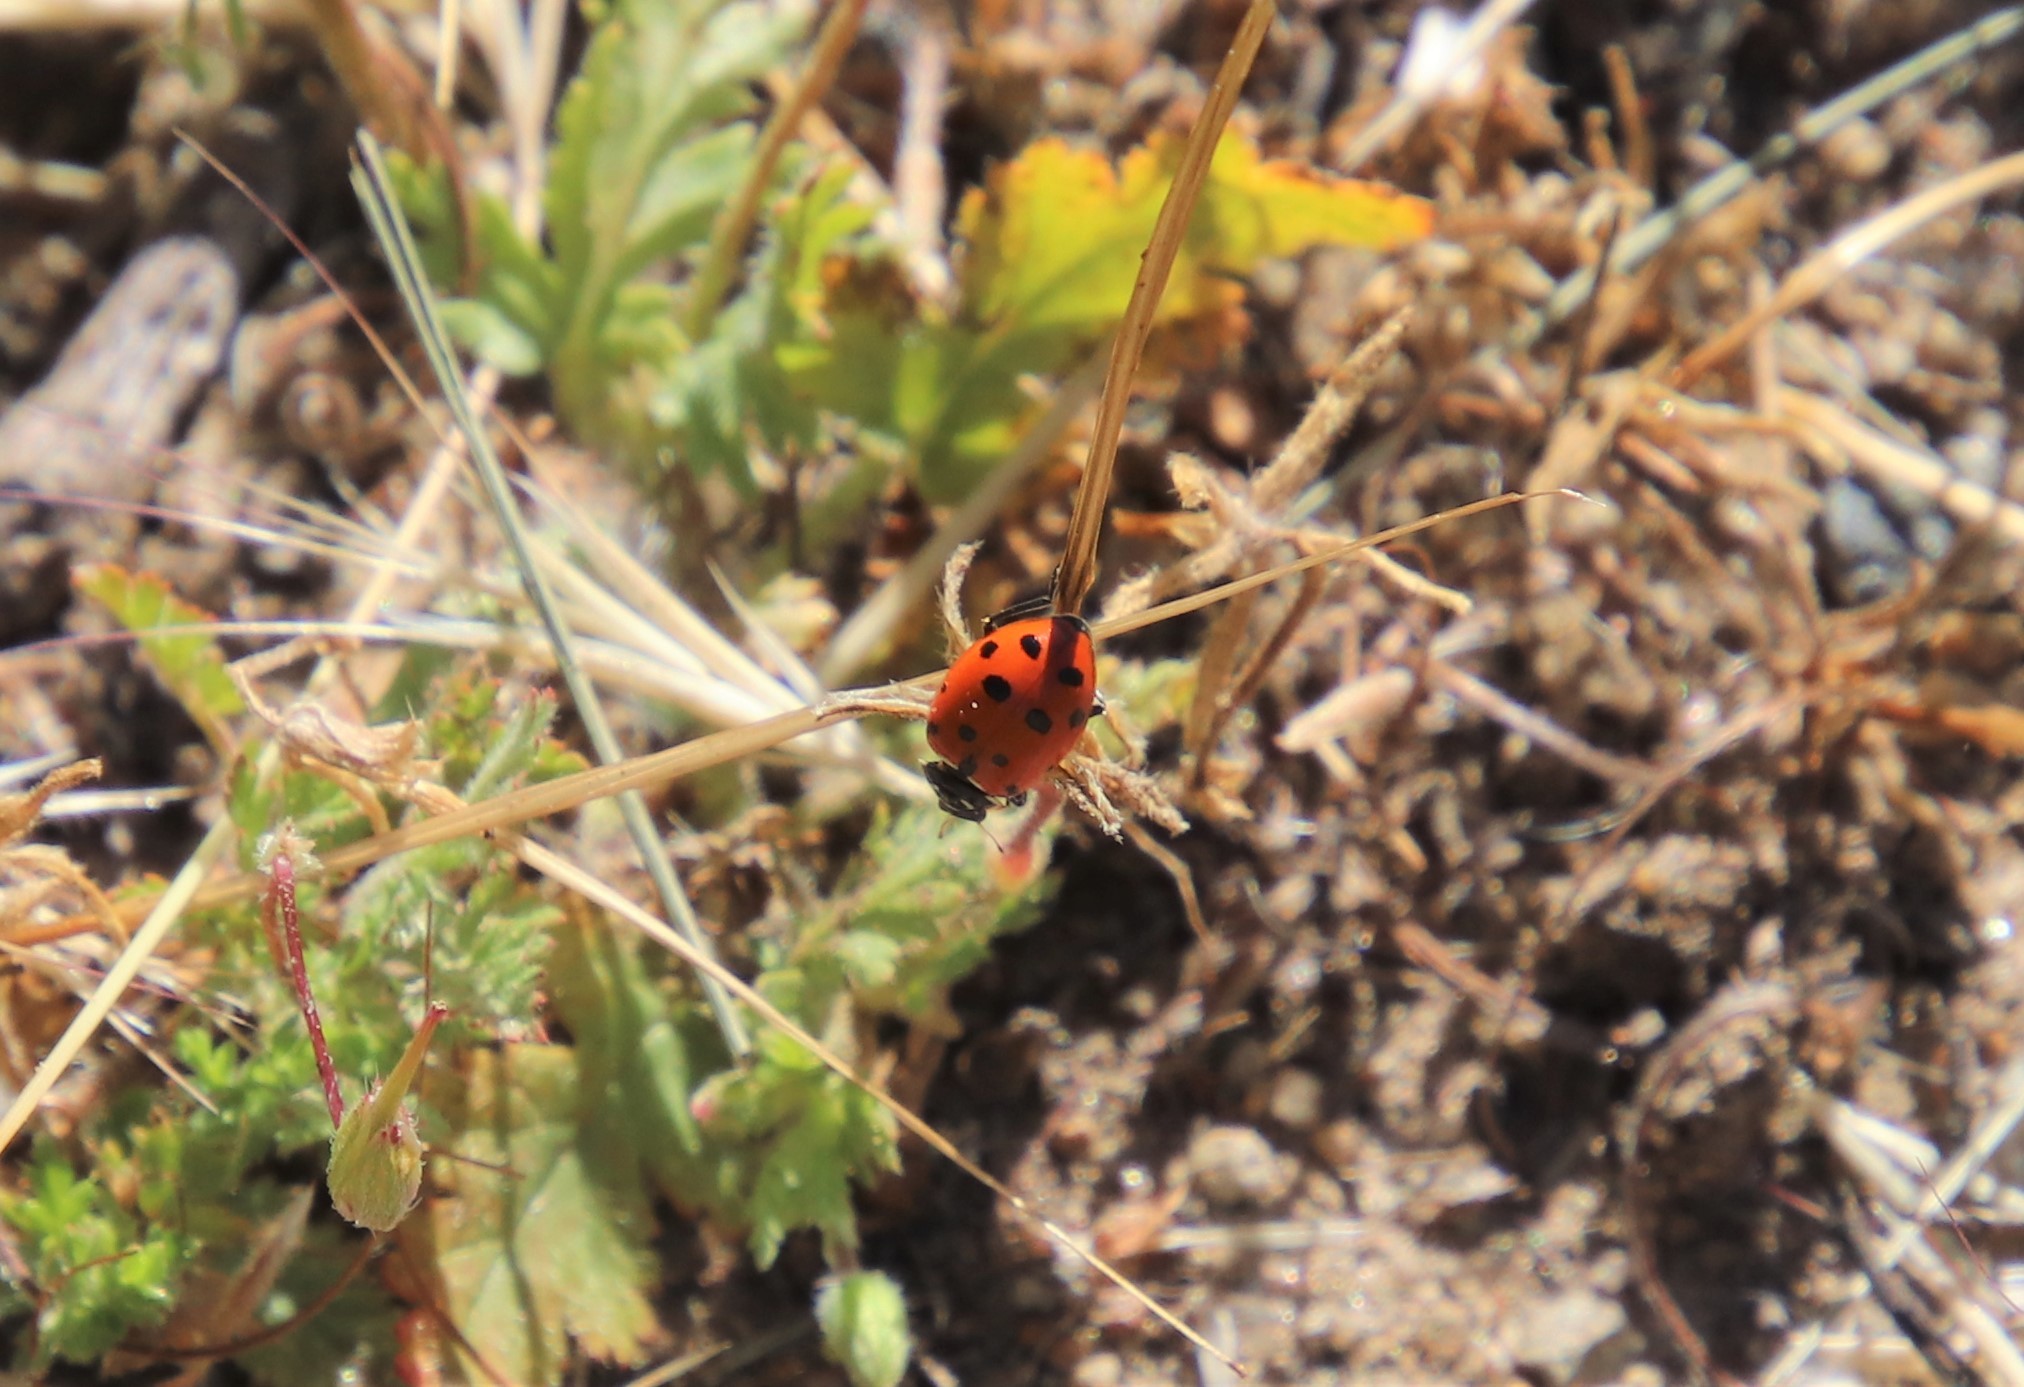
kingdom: Animalia
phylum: Arthropoda
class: Insecta
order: Coleoptera
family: Coccinellidae
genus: Hippodamia
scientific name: Hippodamia convergens
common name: Convergent lady beetle
